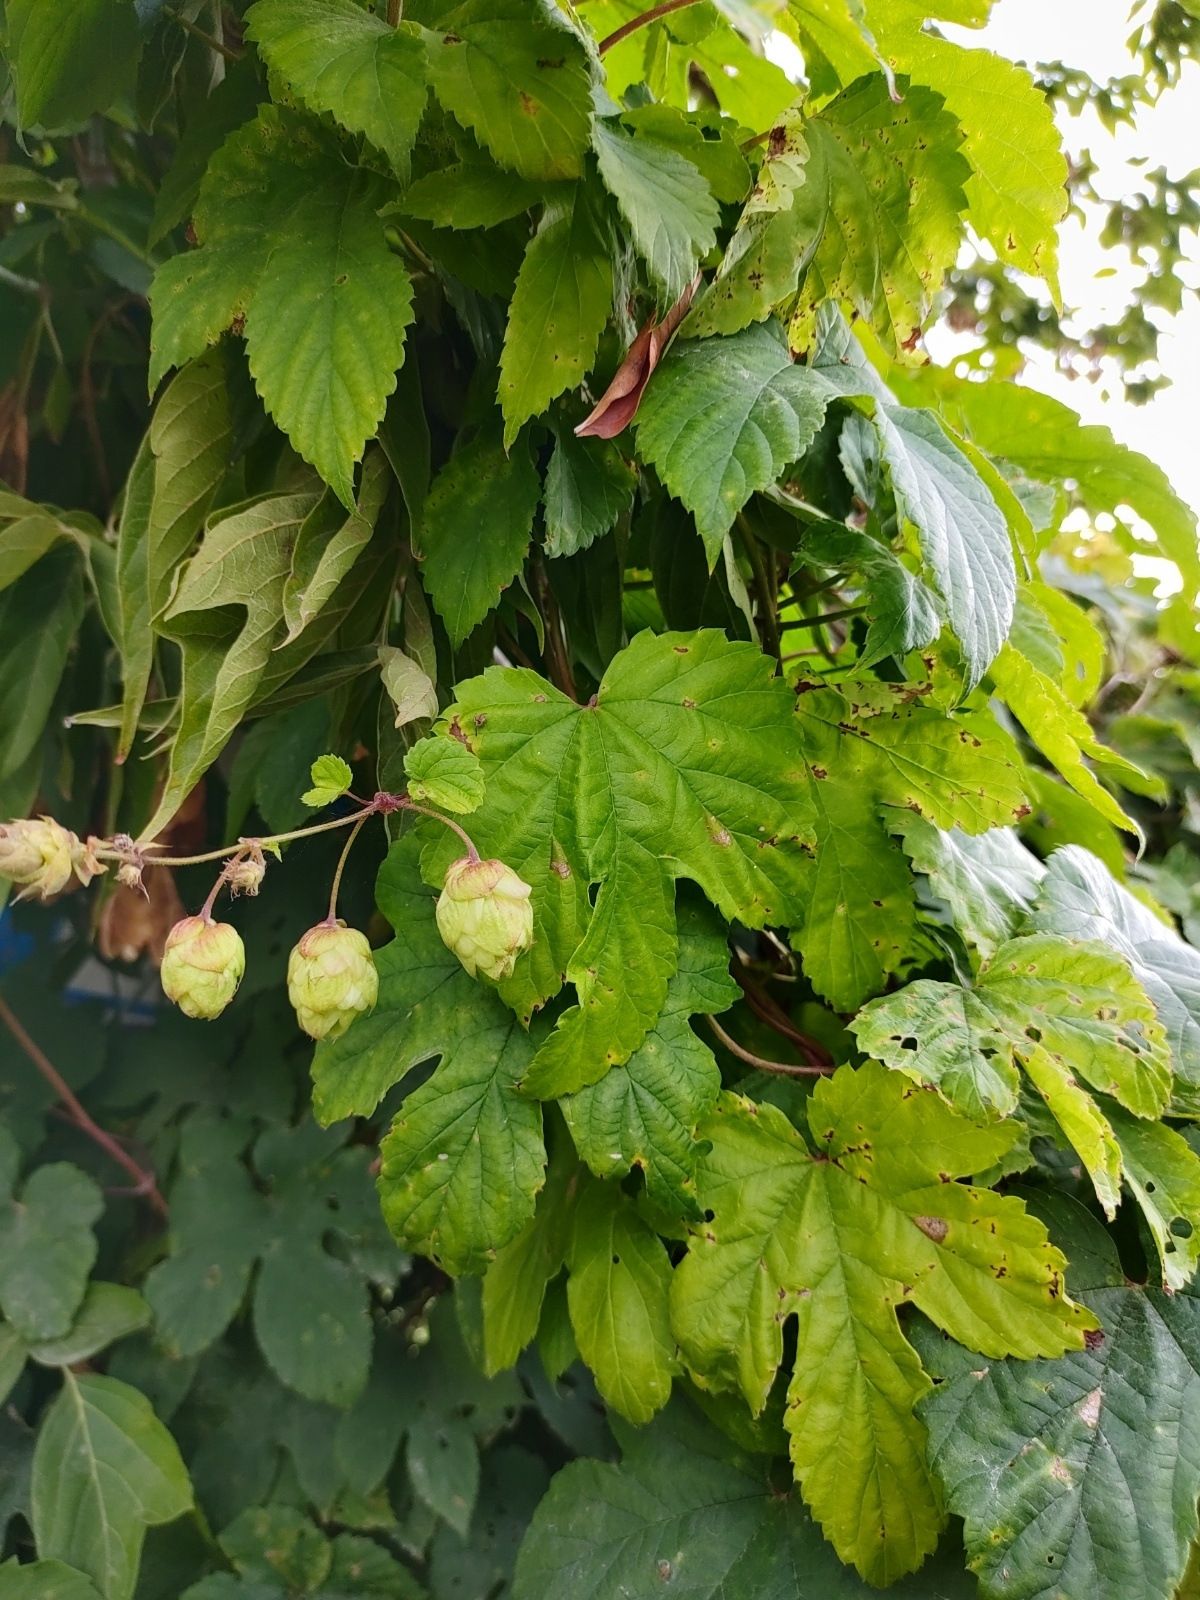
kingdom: Plantae
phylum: Tracheophyta
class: Magnoliopsida
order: Rosales
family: Cannabaceae
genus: Humulus
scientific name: Humulus lupulus
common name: Hop
